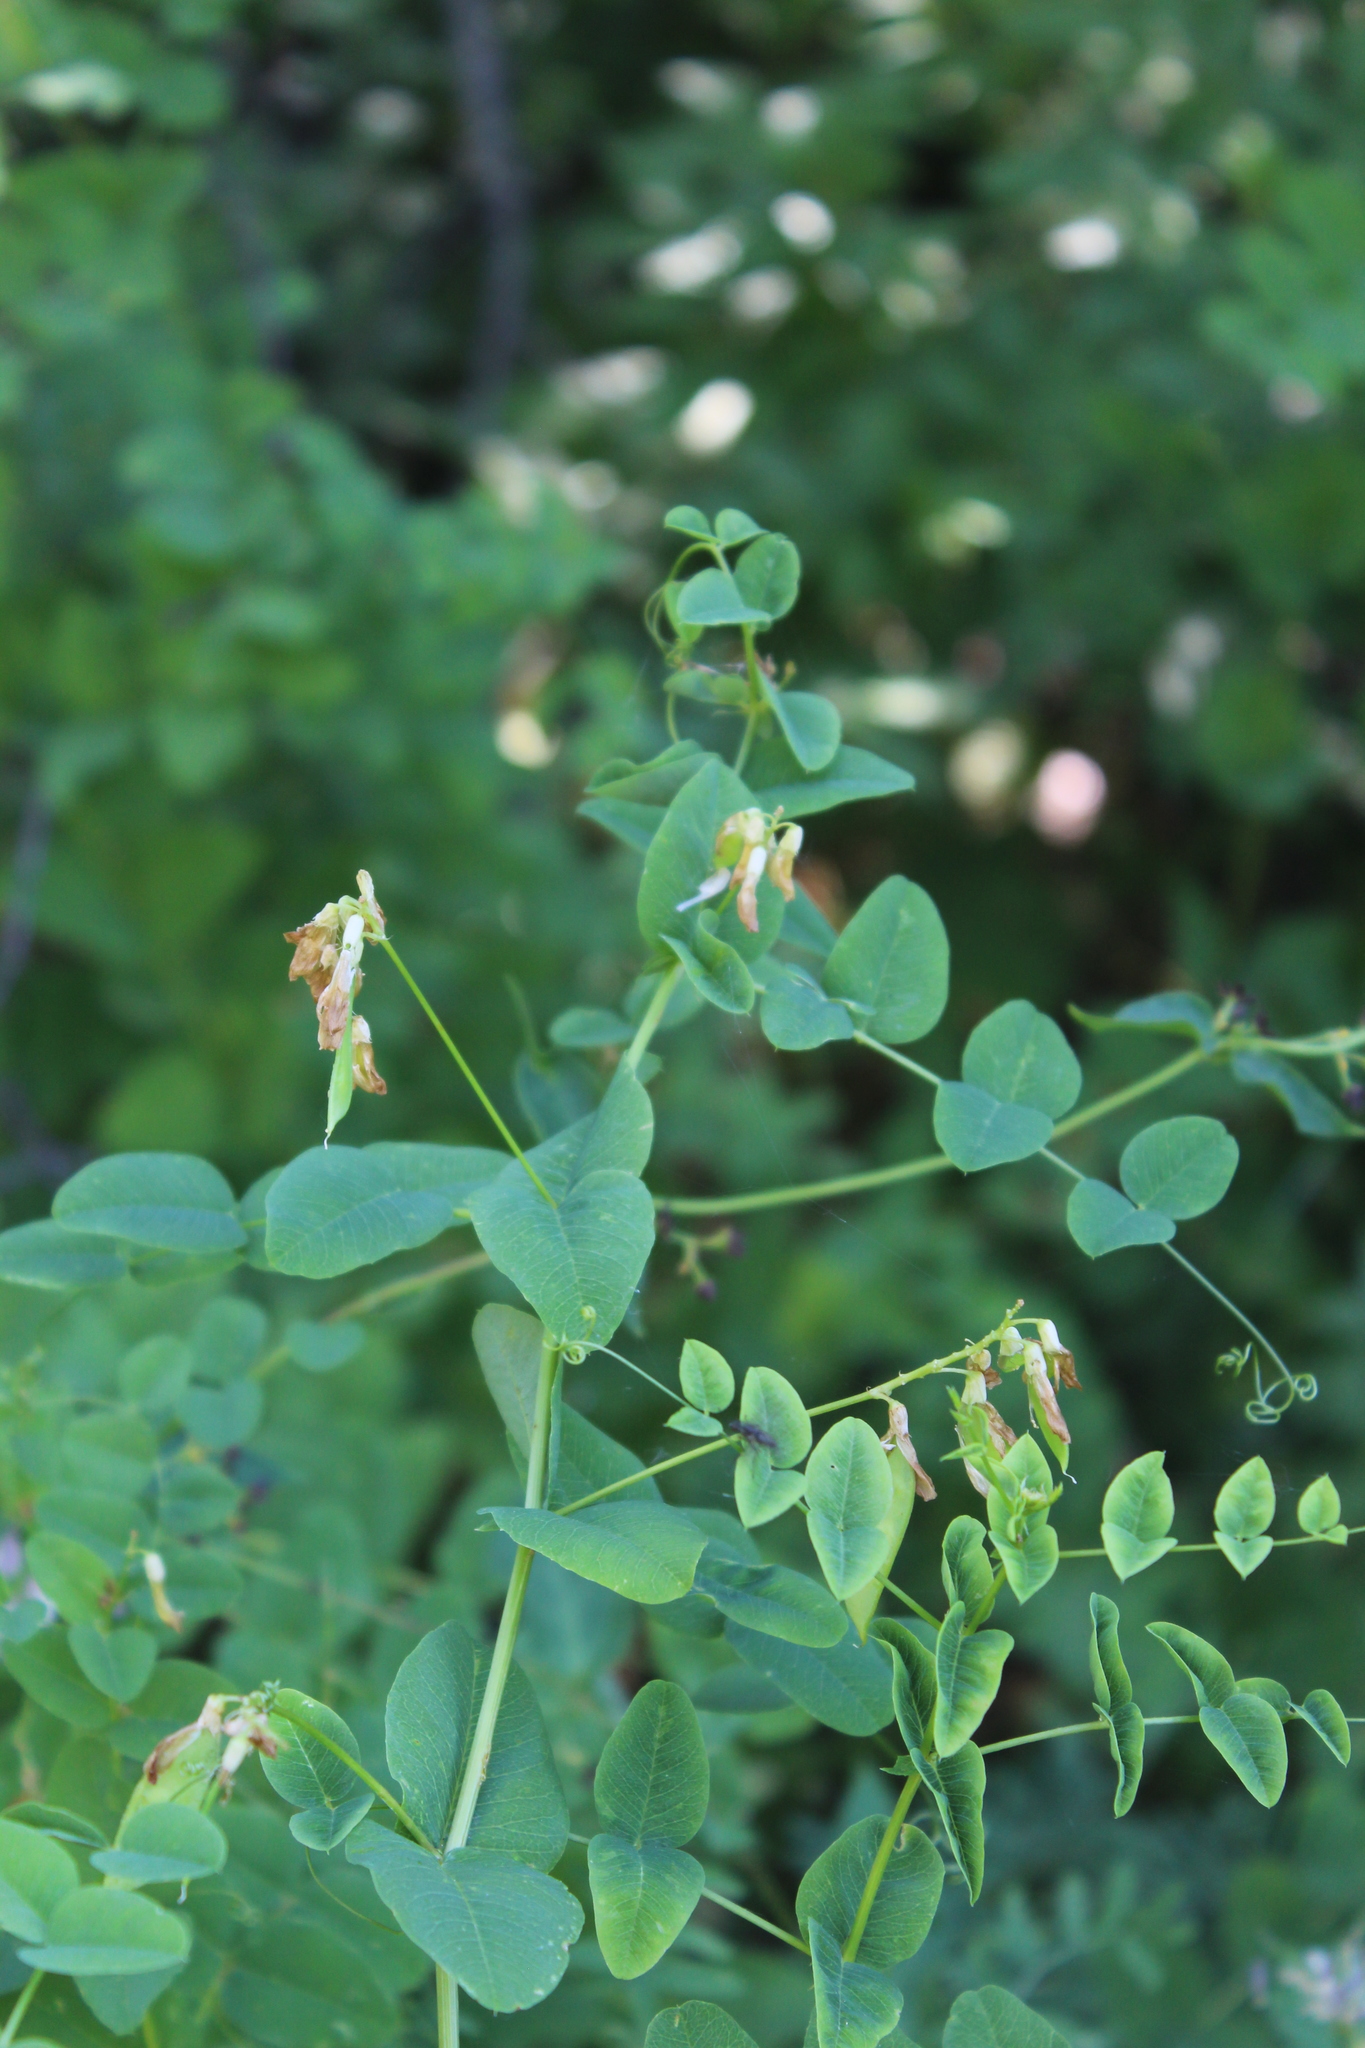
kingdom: Plantae
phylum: Tracheophyta
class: Magnoliopsida
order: Fabales
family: Fabaceae
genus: Vicia
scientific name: Vicia pisiformis
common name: Pale-flower vetch
